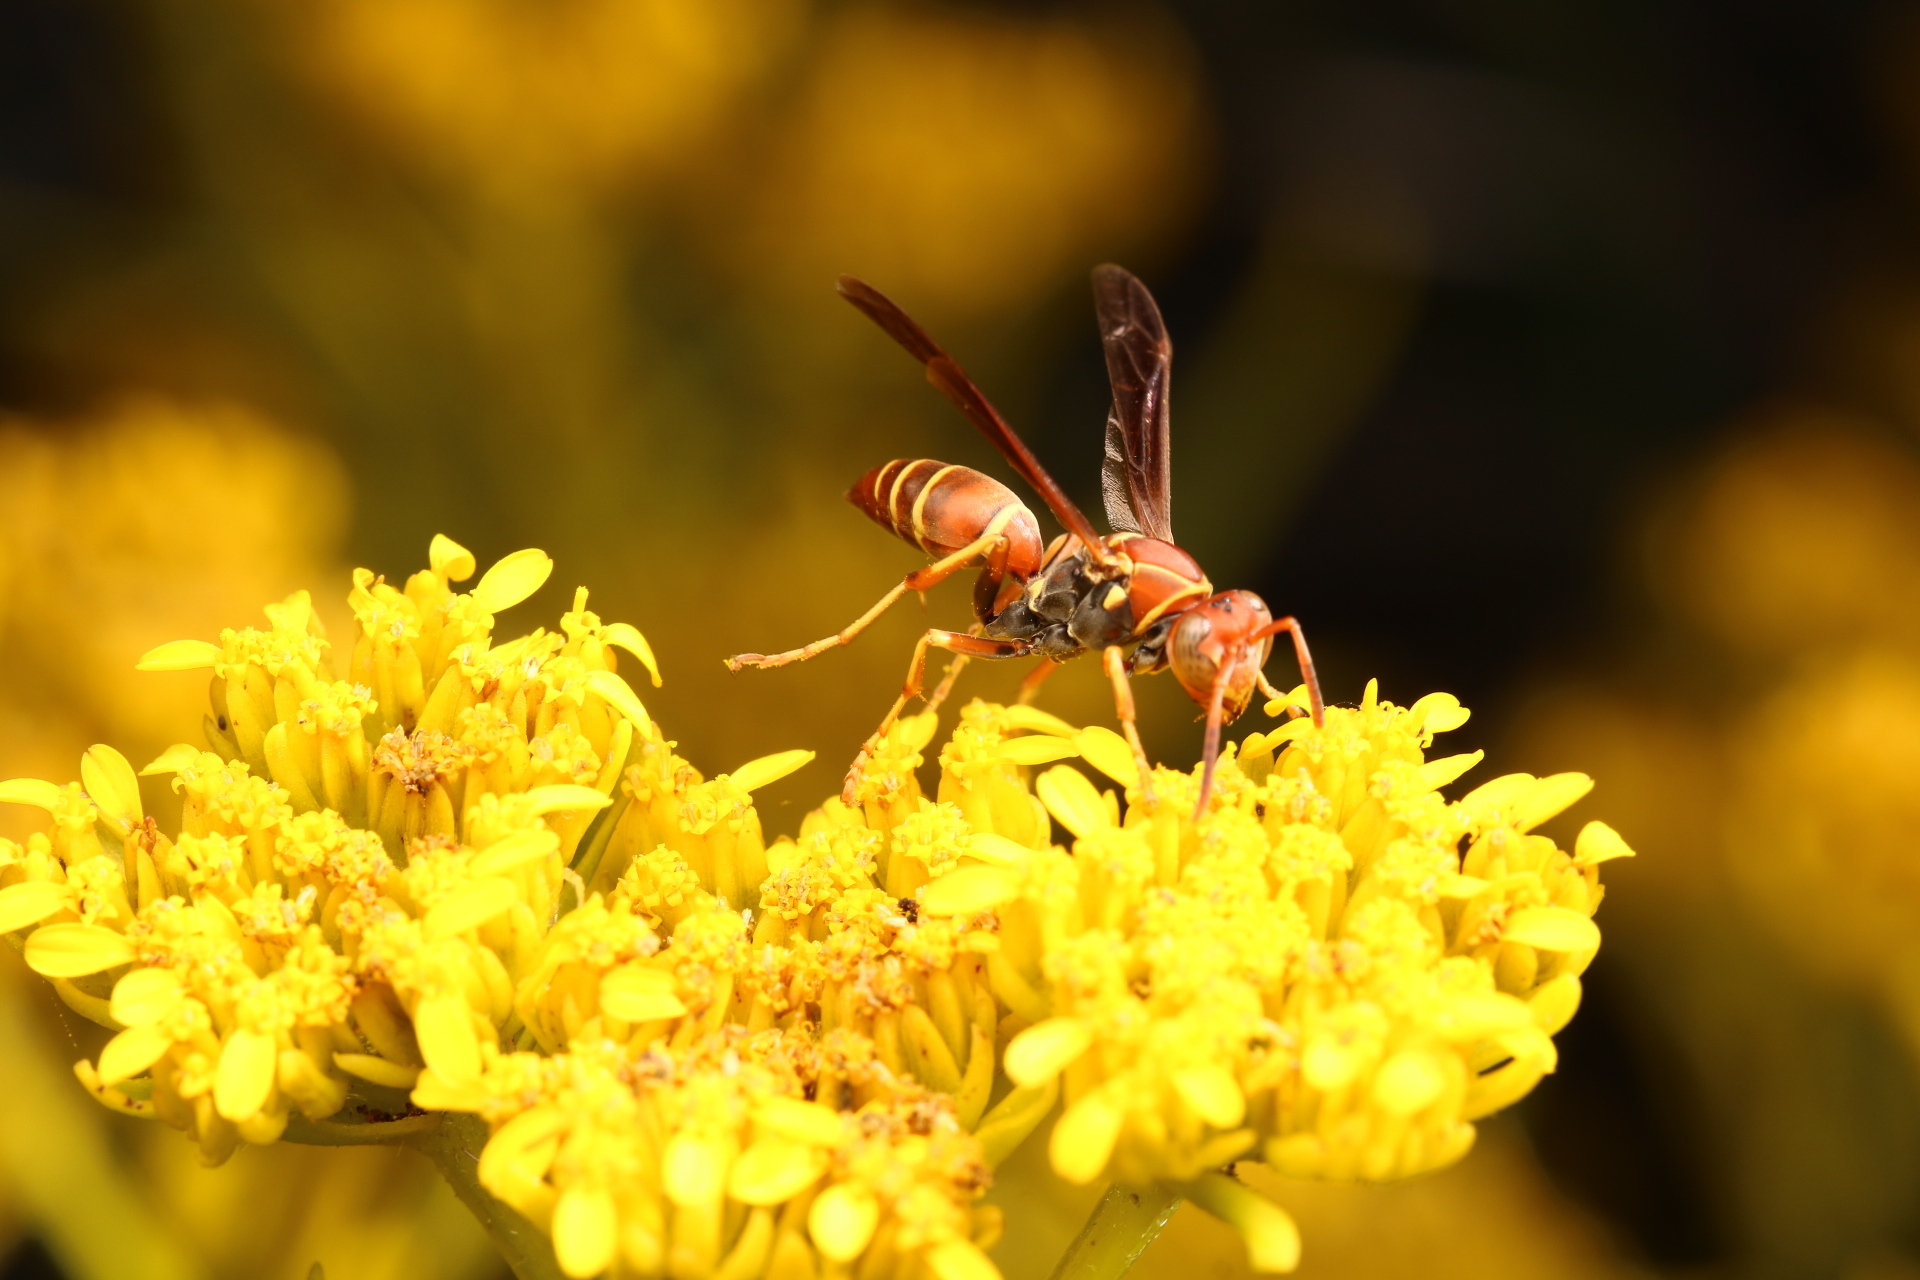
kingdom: Animalia
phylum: Arthropoda
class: Insecta
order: Hymenoptera
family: Eumenidae
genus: Polistes
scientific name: Polistes dorsalis
